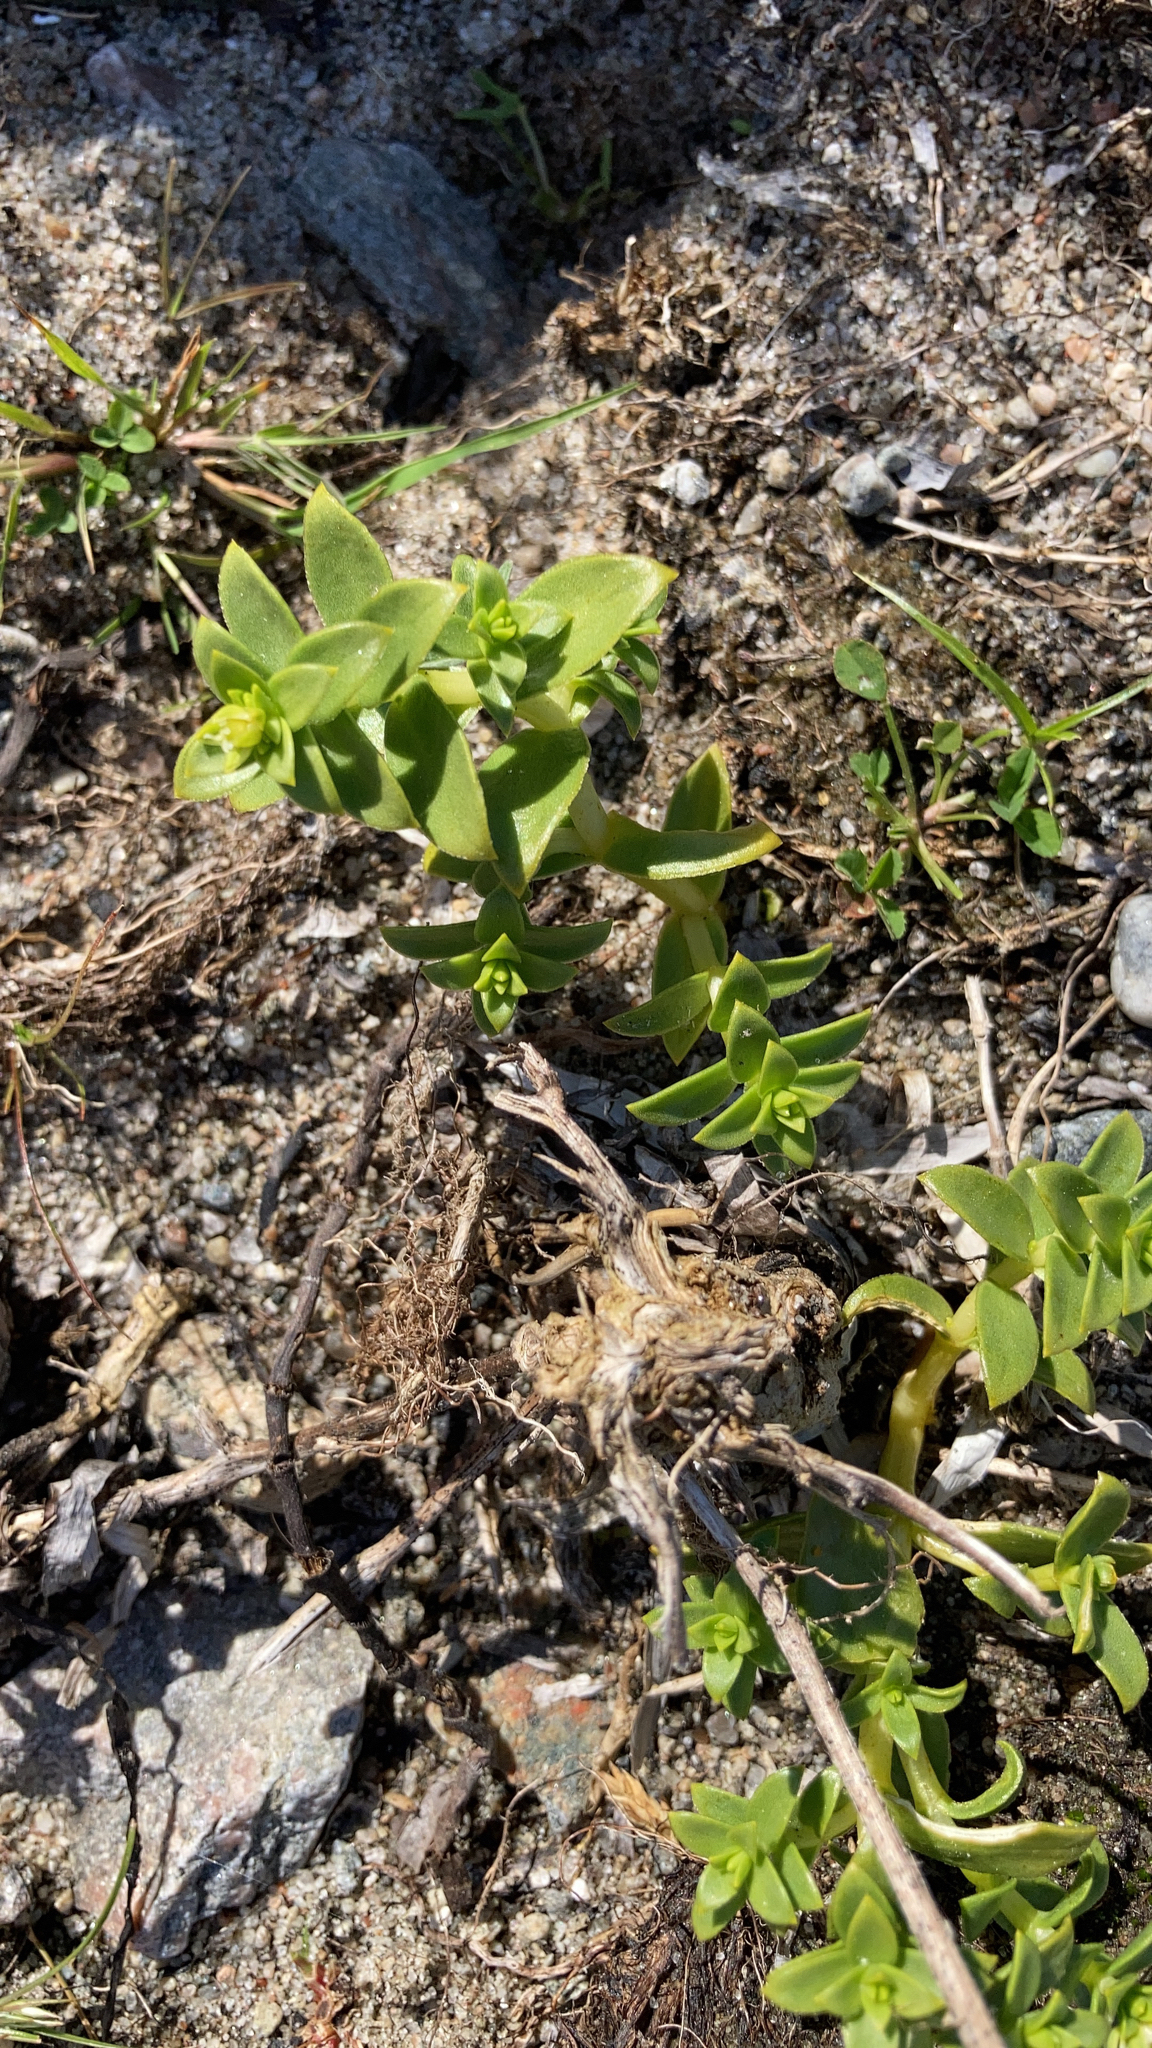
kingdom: Plantae
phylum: Tracheophyta
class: Magnoliopsida
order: Caryophyllales
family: Caryophyllaceae
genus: Honckenya
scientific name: Honckenya peploides
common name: Sea sandwort
